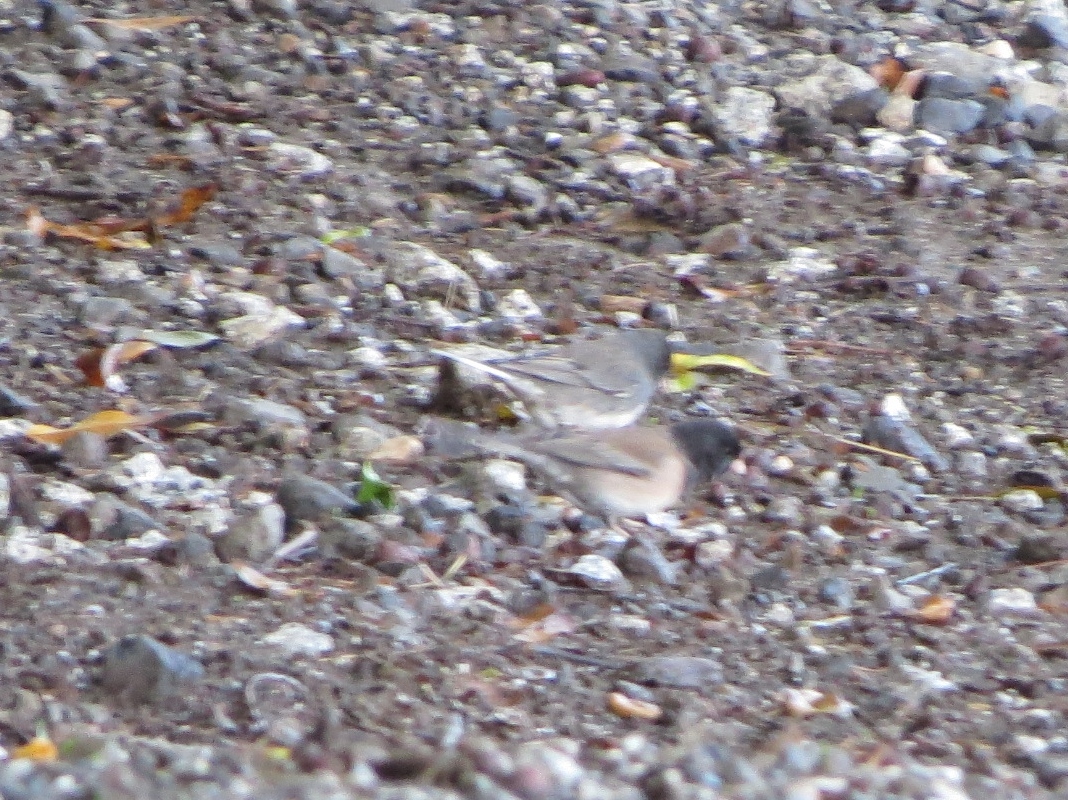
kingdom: Animalia
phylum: Chordata
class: Aves
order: Passeriformes
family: Passerellidae
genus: Junco
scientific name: Junco hyemalis
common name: Dark-eyed junco
